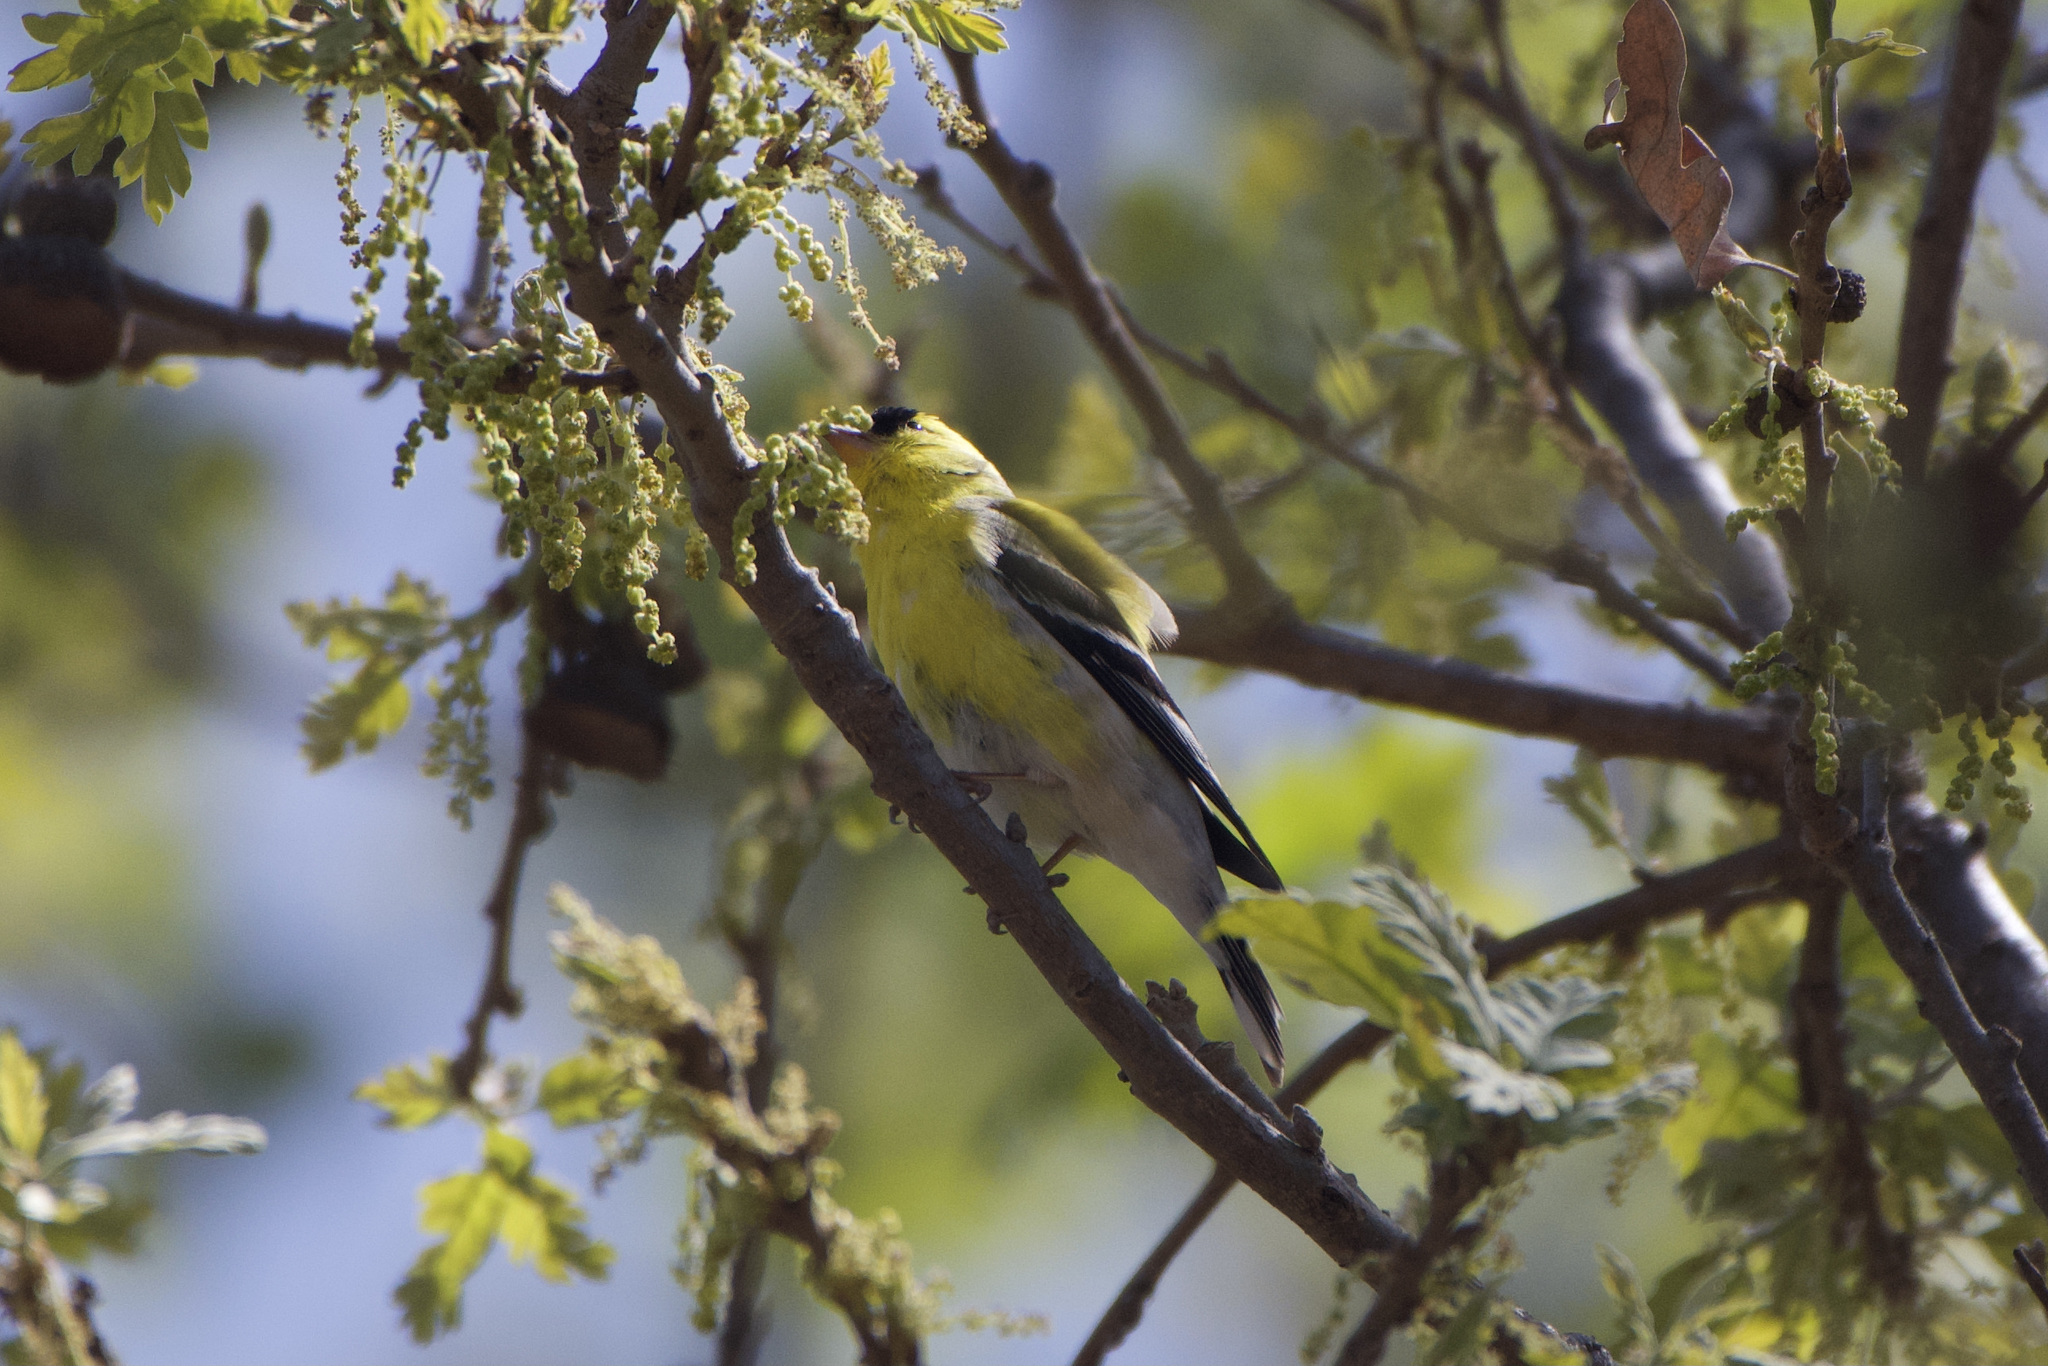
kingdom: Animalia
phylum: Chordata
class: Aves
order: Passeriformes
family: Fringillidae
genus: Spinus
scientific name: Spinus tristis
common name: American goldfinch
